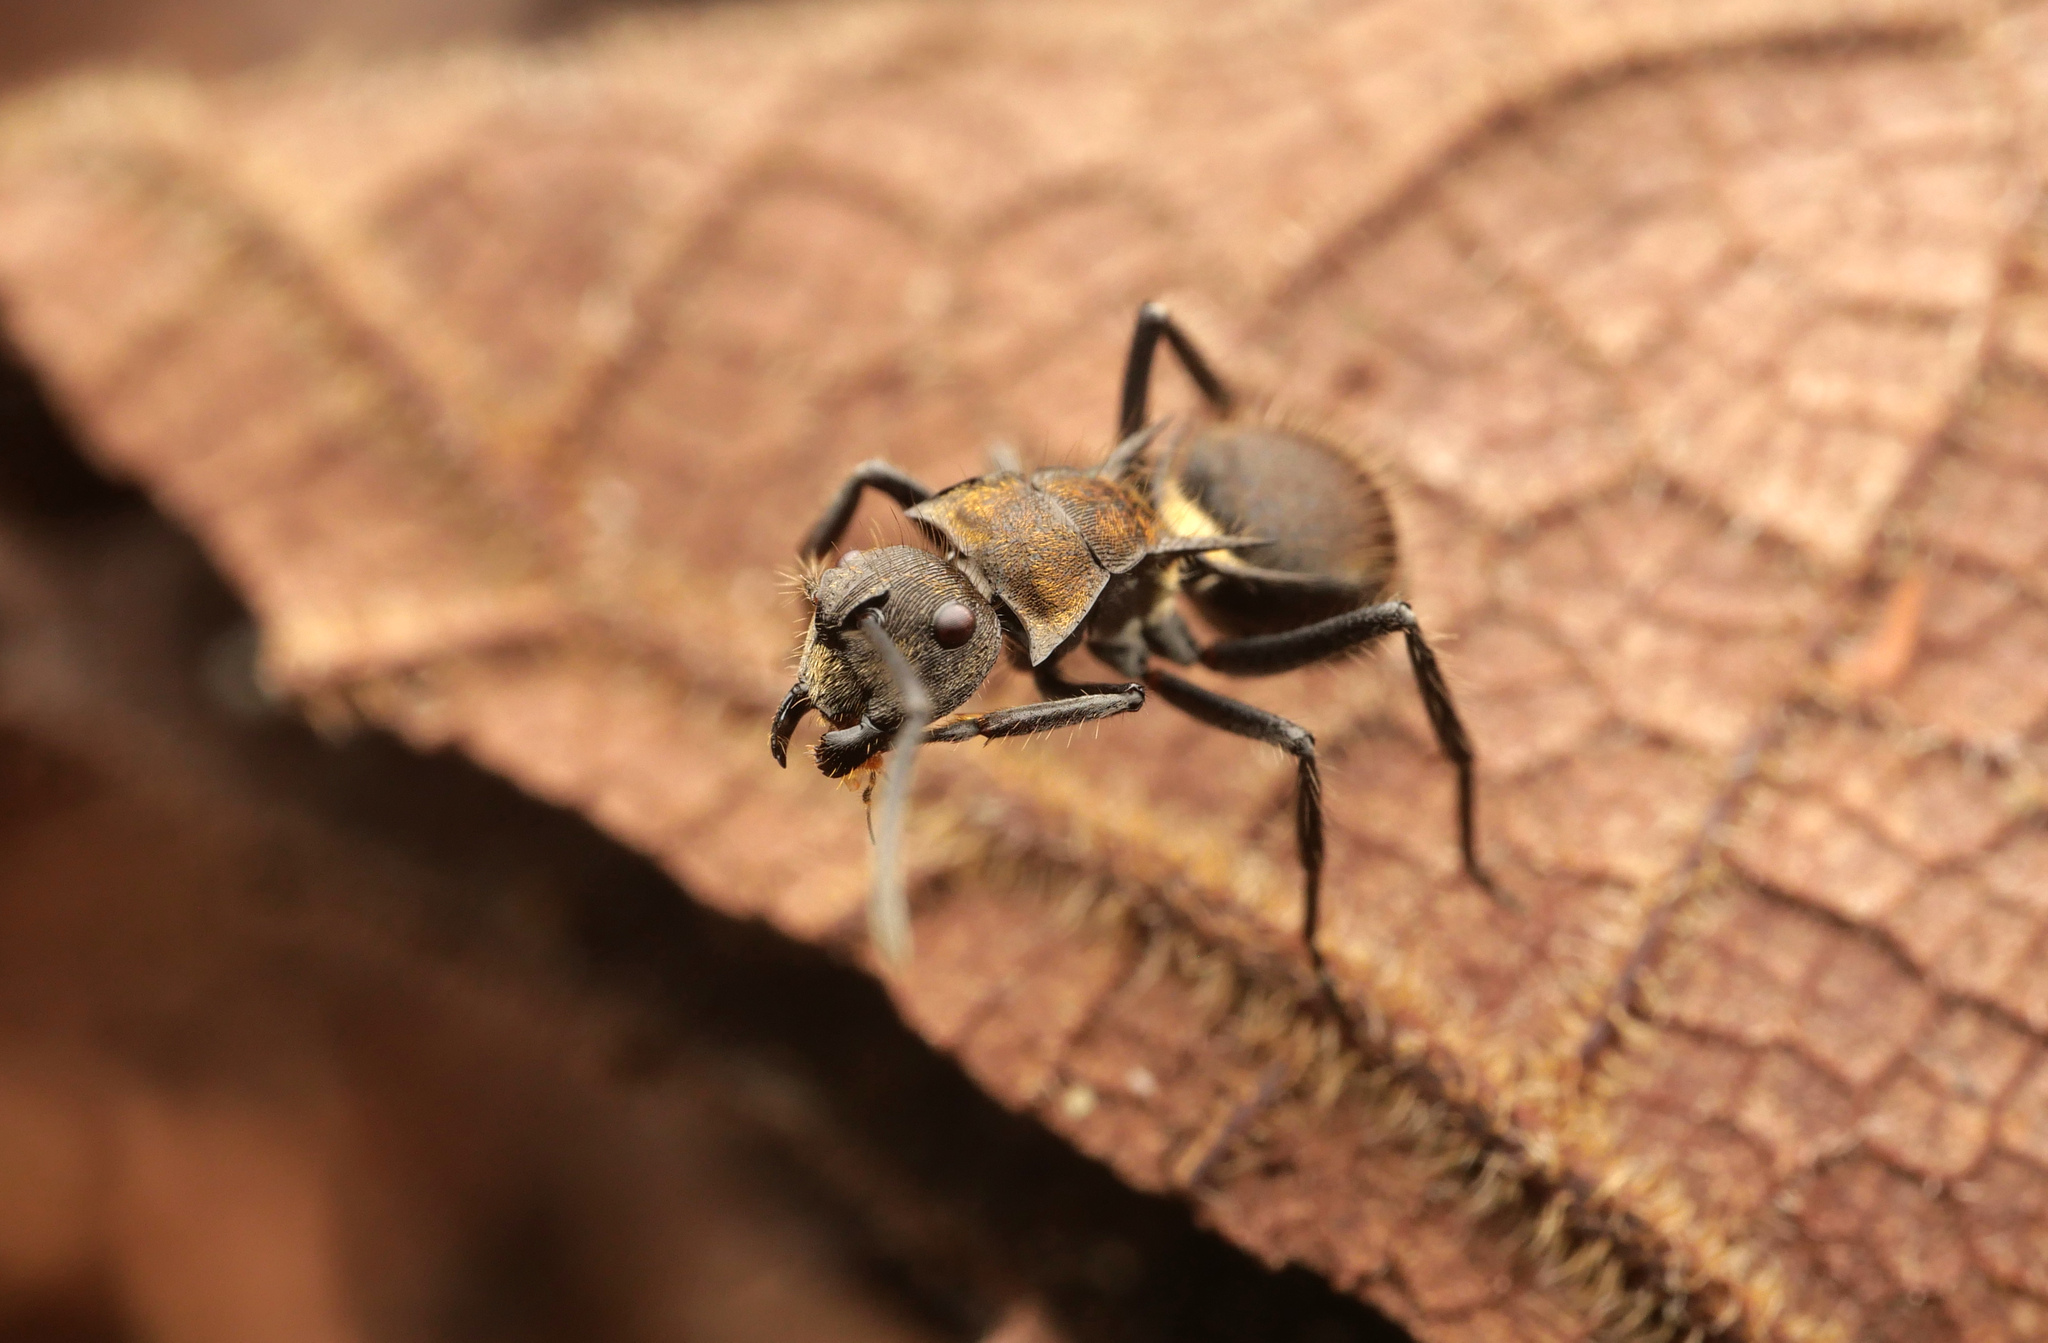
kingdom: Animalia
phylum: Arthropoda
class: Insecta
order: Hymenoptera
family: Formicidae
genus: Polyrhachis
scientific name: Polyrhachis limbata
